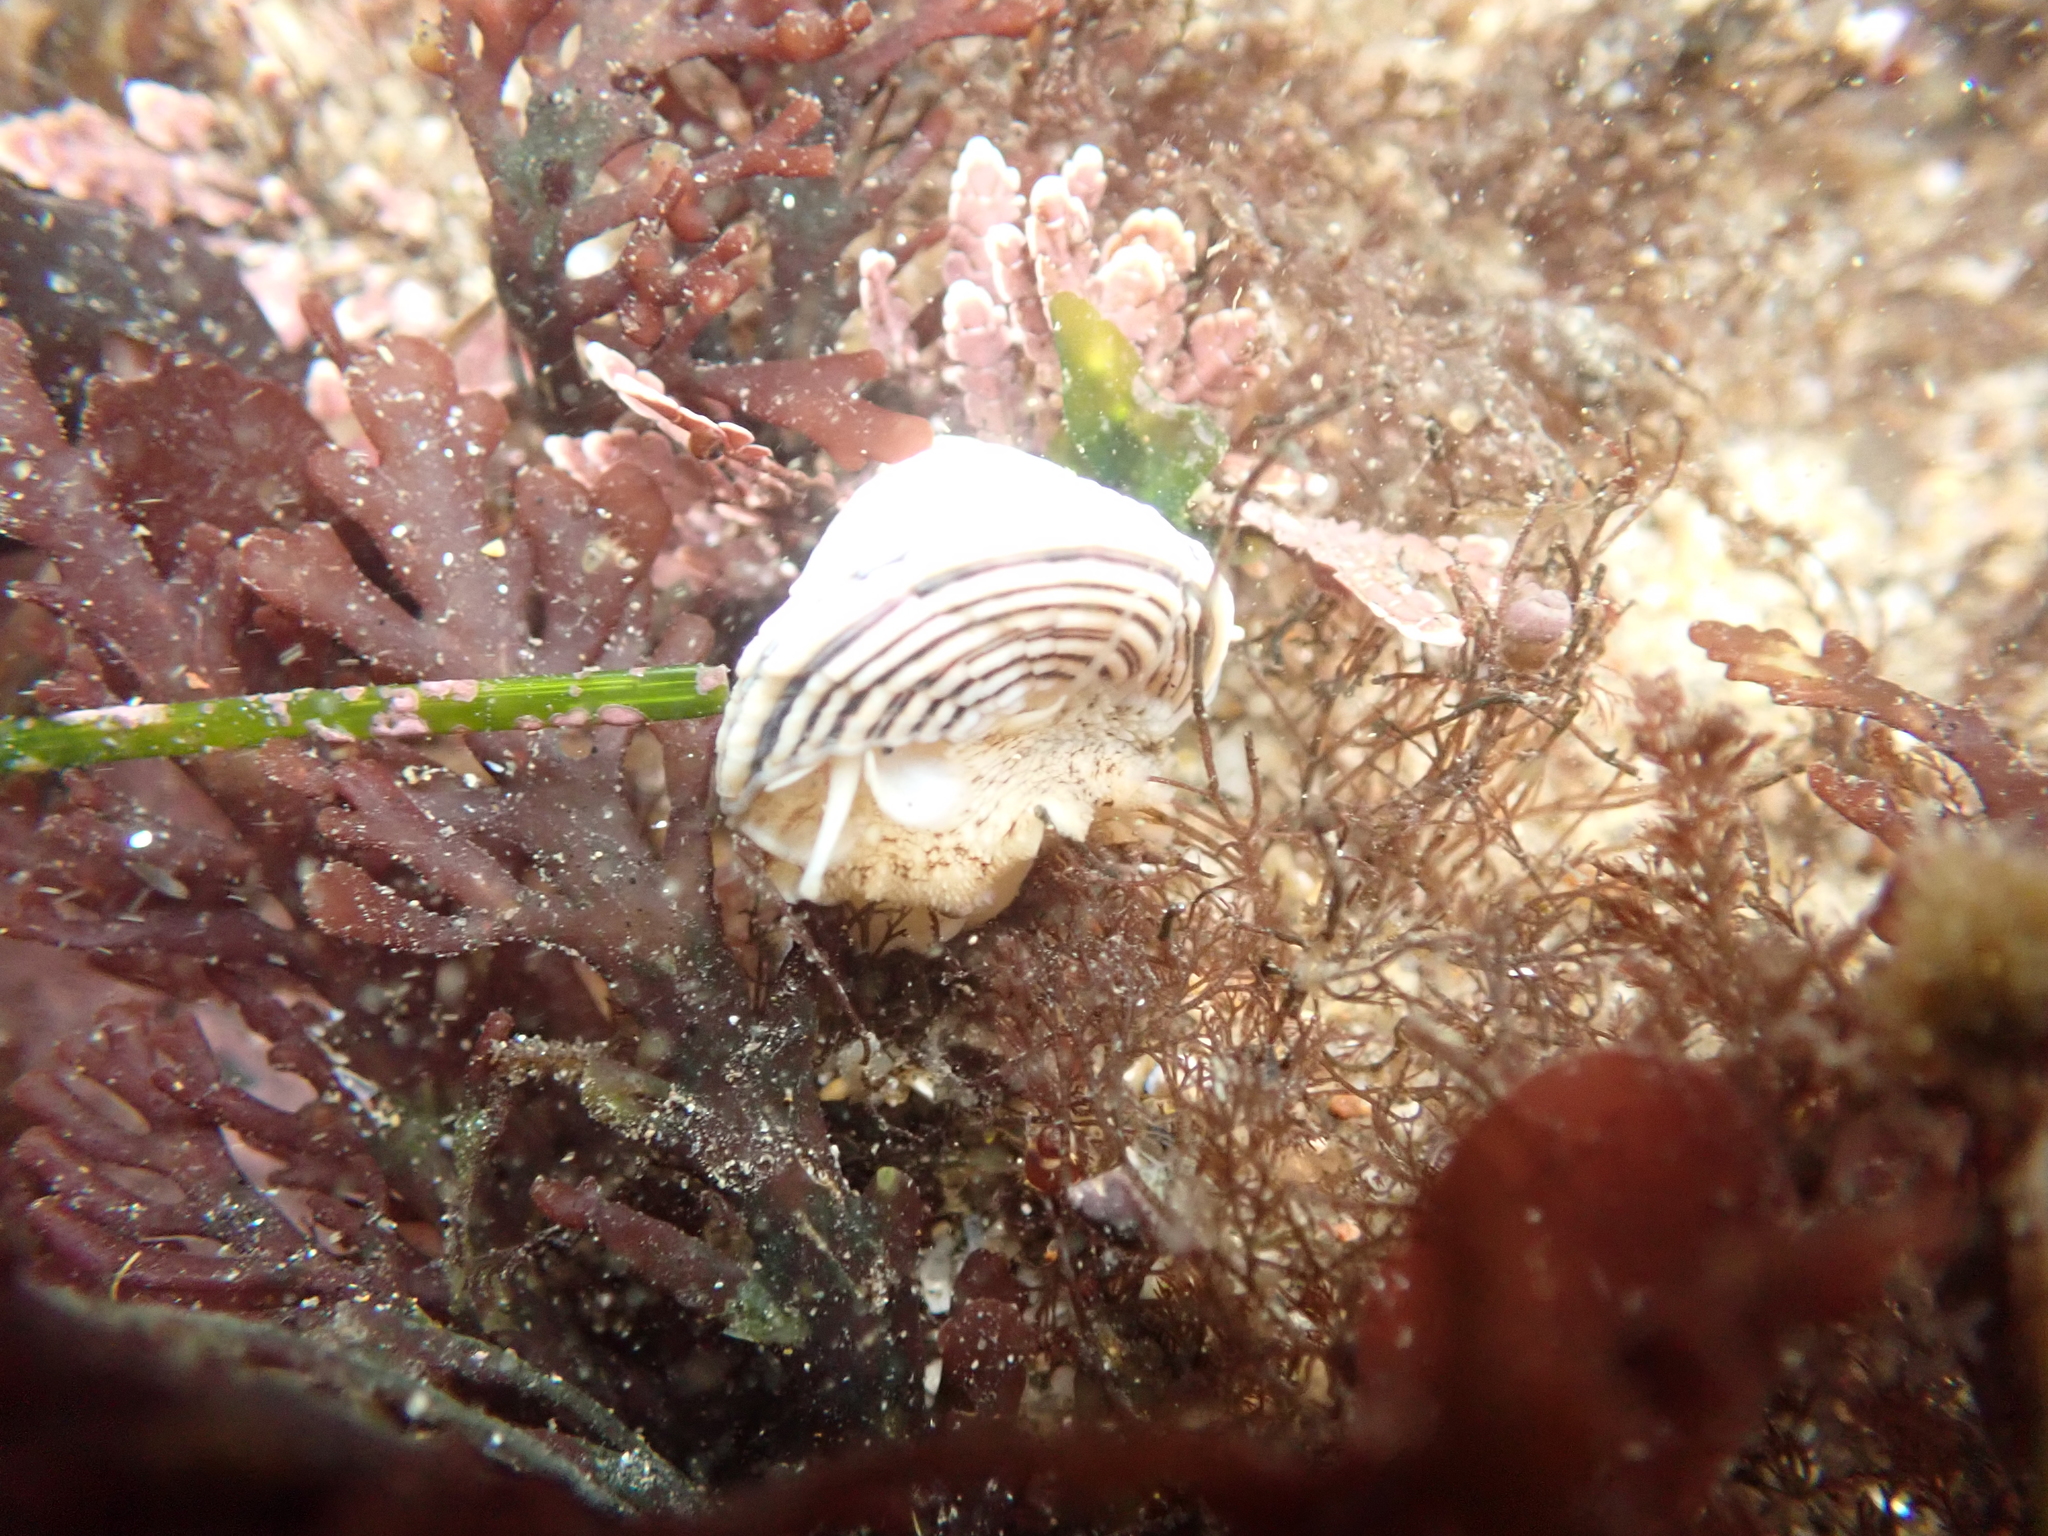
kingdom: Animalia
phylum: Mollusca
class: Gastropoda
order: Trochida
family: Calliostomatidae
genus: Calliostoma
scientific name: Calliostoma canaliculatum
